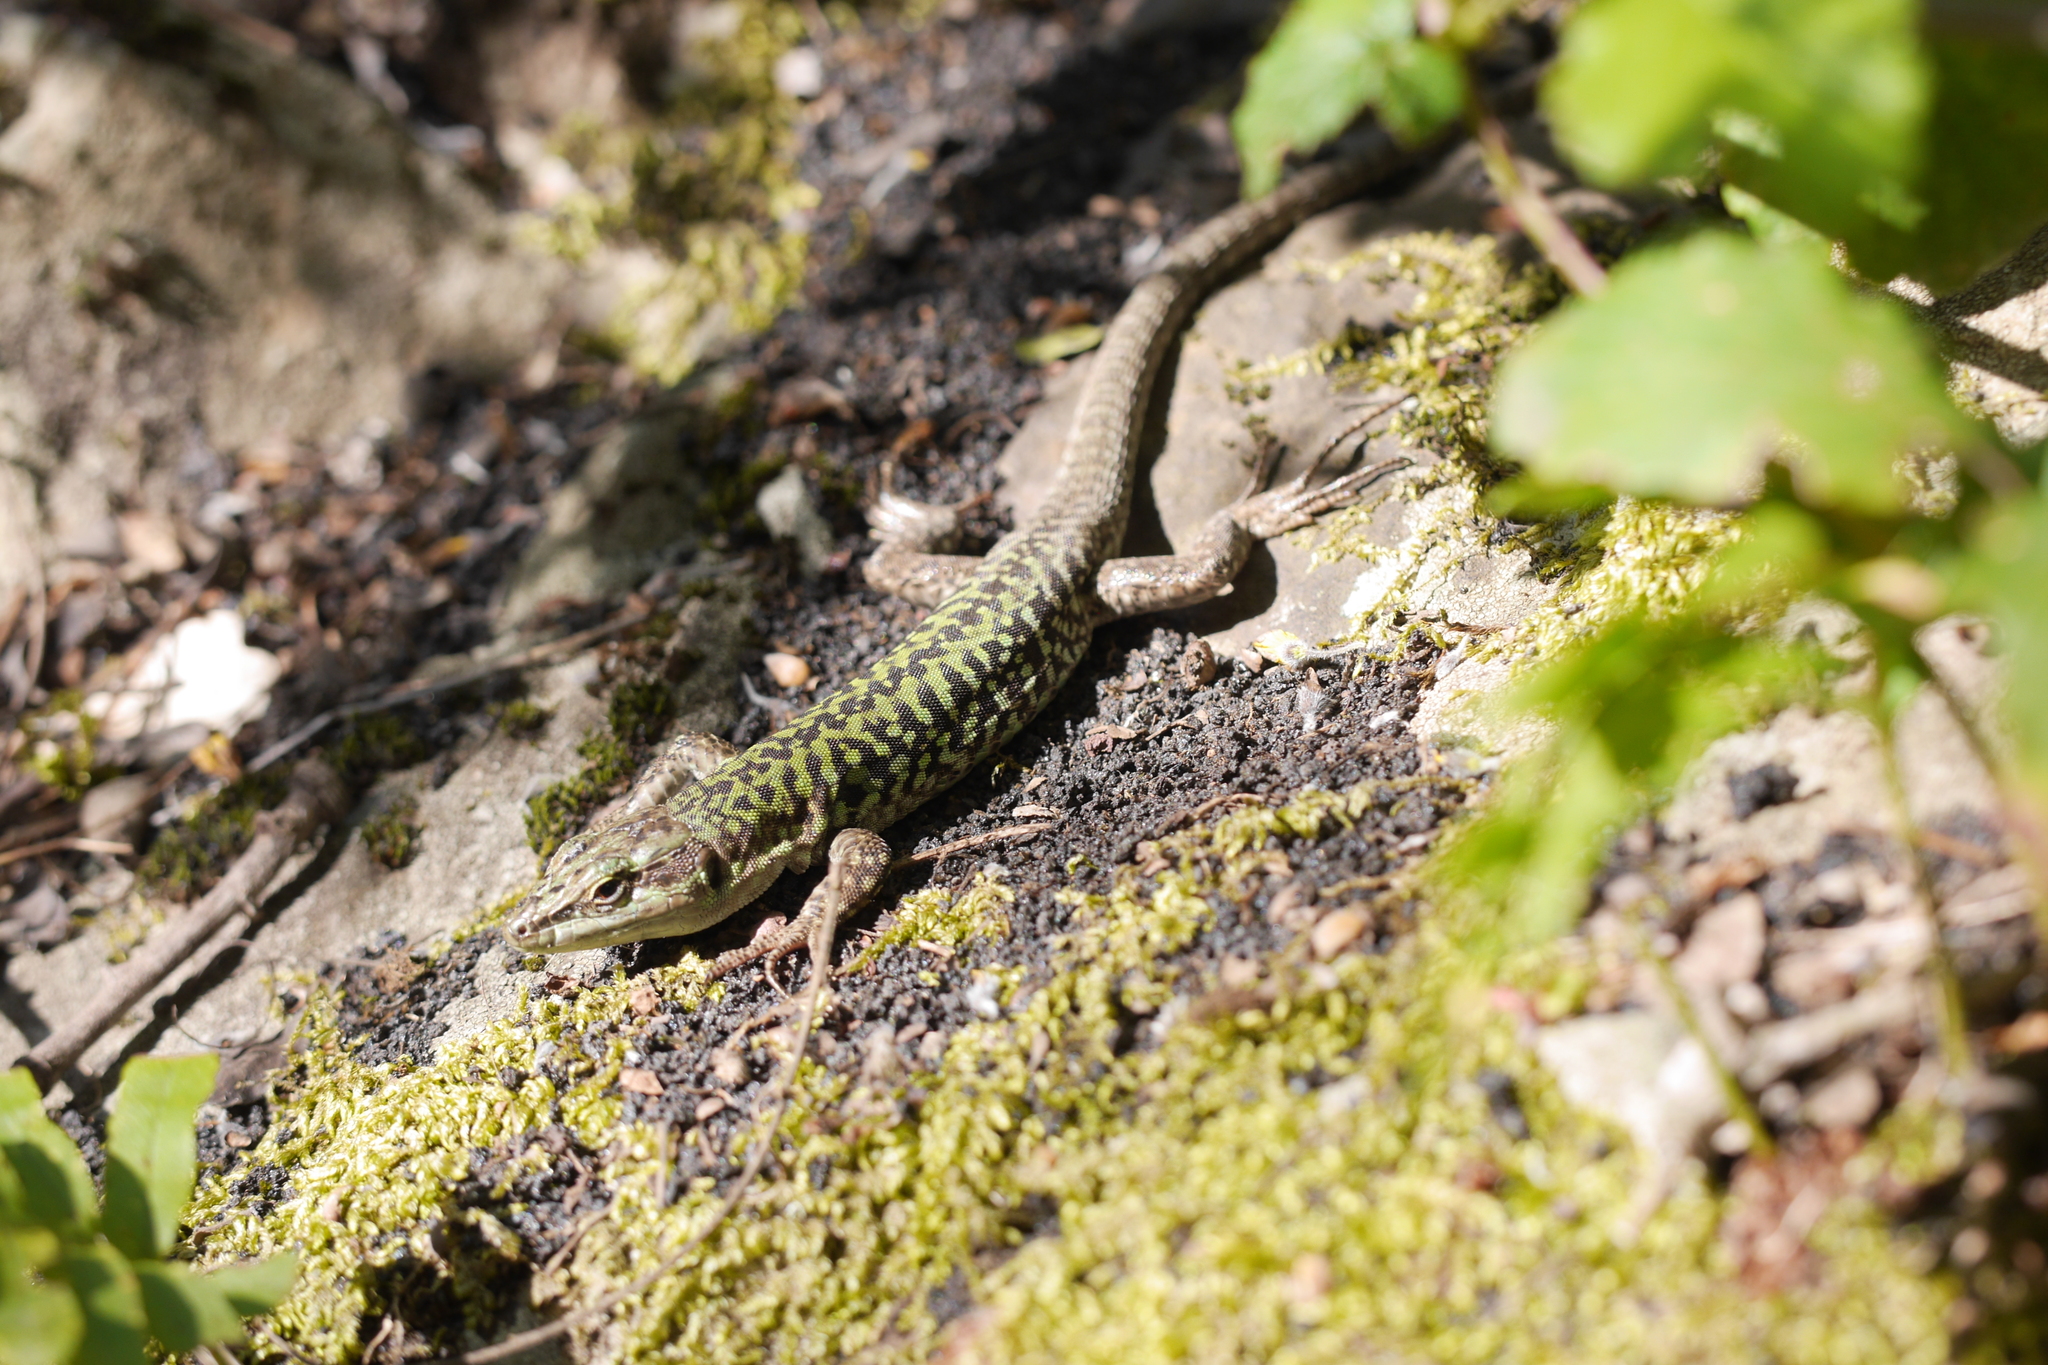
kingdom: Animalia
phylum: Chordata
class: Squamata
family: Lacertidae
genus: Podarcis
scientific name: Podarcis siculus
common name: Italian wall lizard
